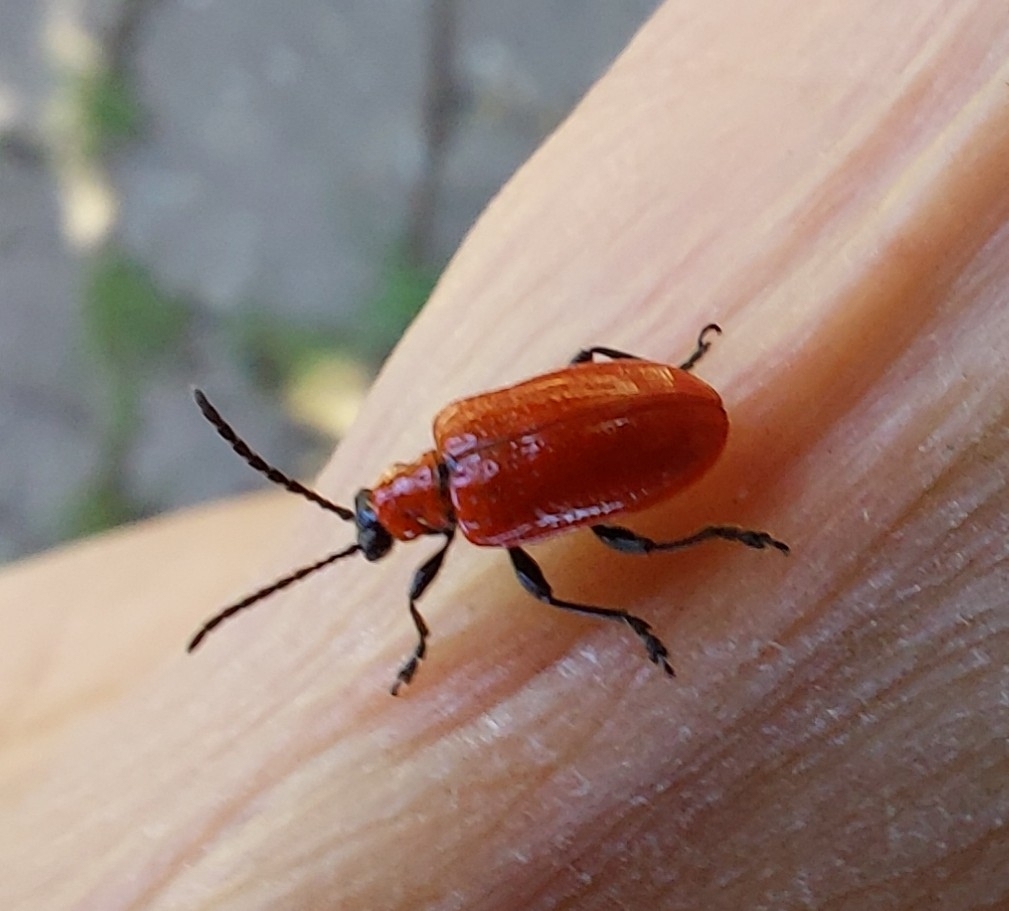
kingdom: Animalia
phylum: Arthropoda
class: Insecta
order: Coleoptera
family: Chrysomelidae
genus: Lilioceris
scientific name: Lilioceris lilii
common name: Lily beetle
